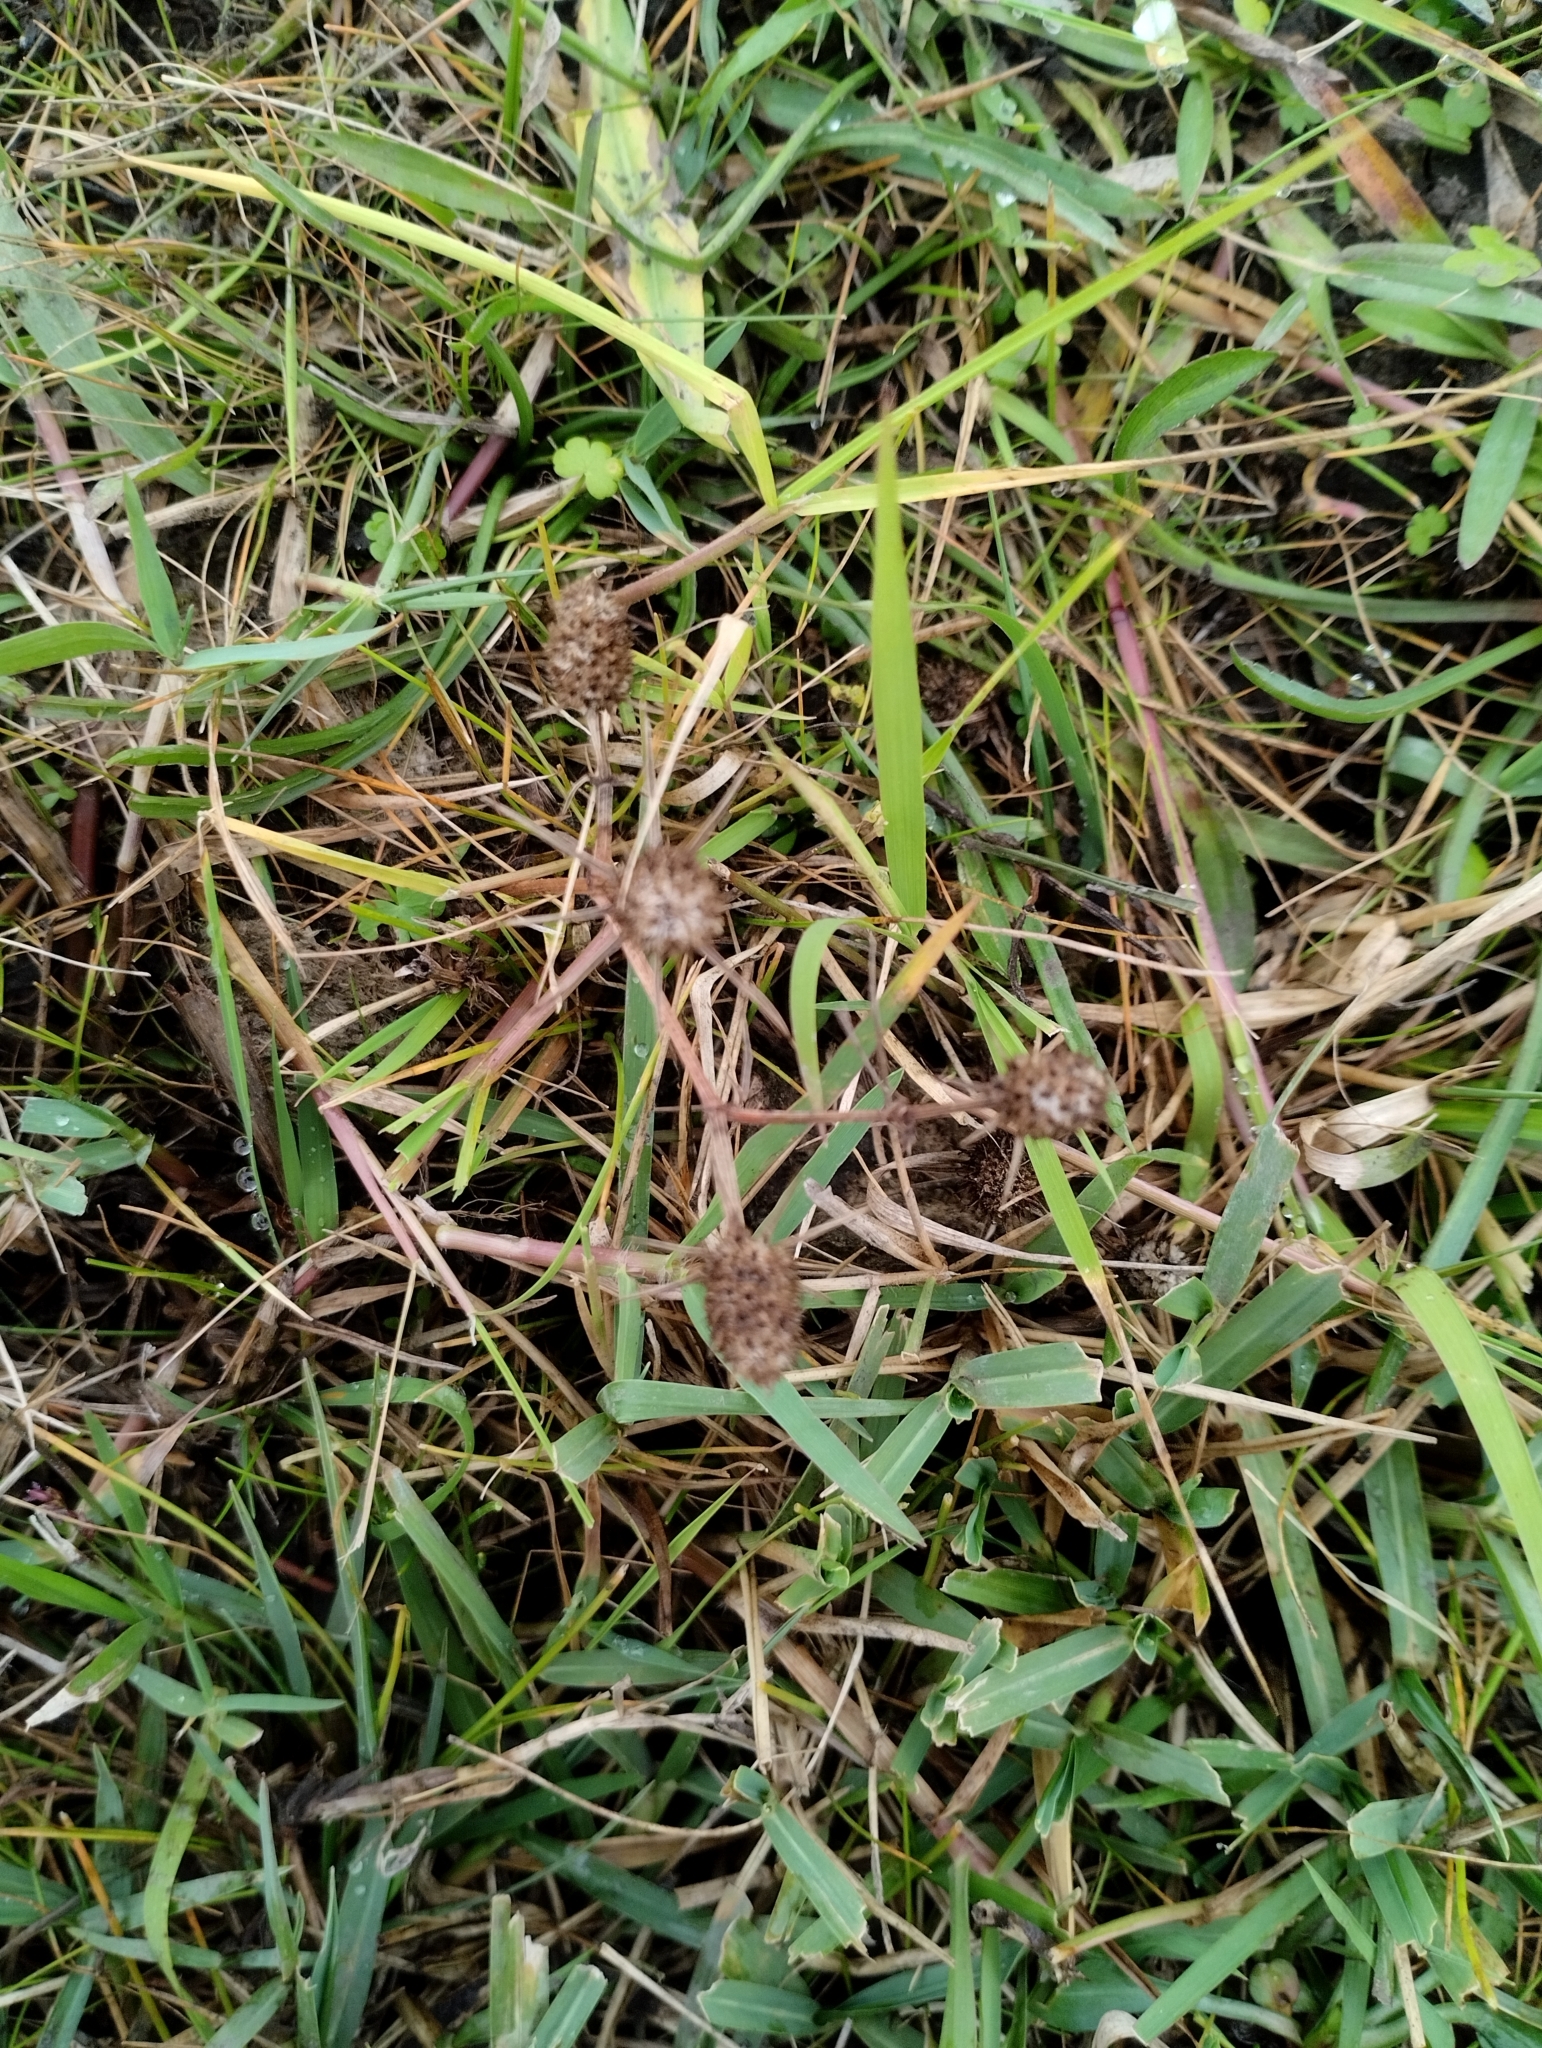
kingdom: Plantae
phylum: Tracheophyta
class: Magnoliopsida
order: Apiales
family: Apiaceae
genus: Eryngium
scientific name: Eryngium echinatum
